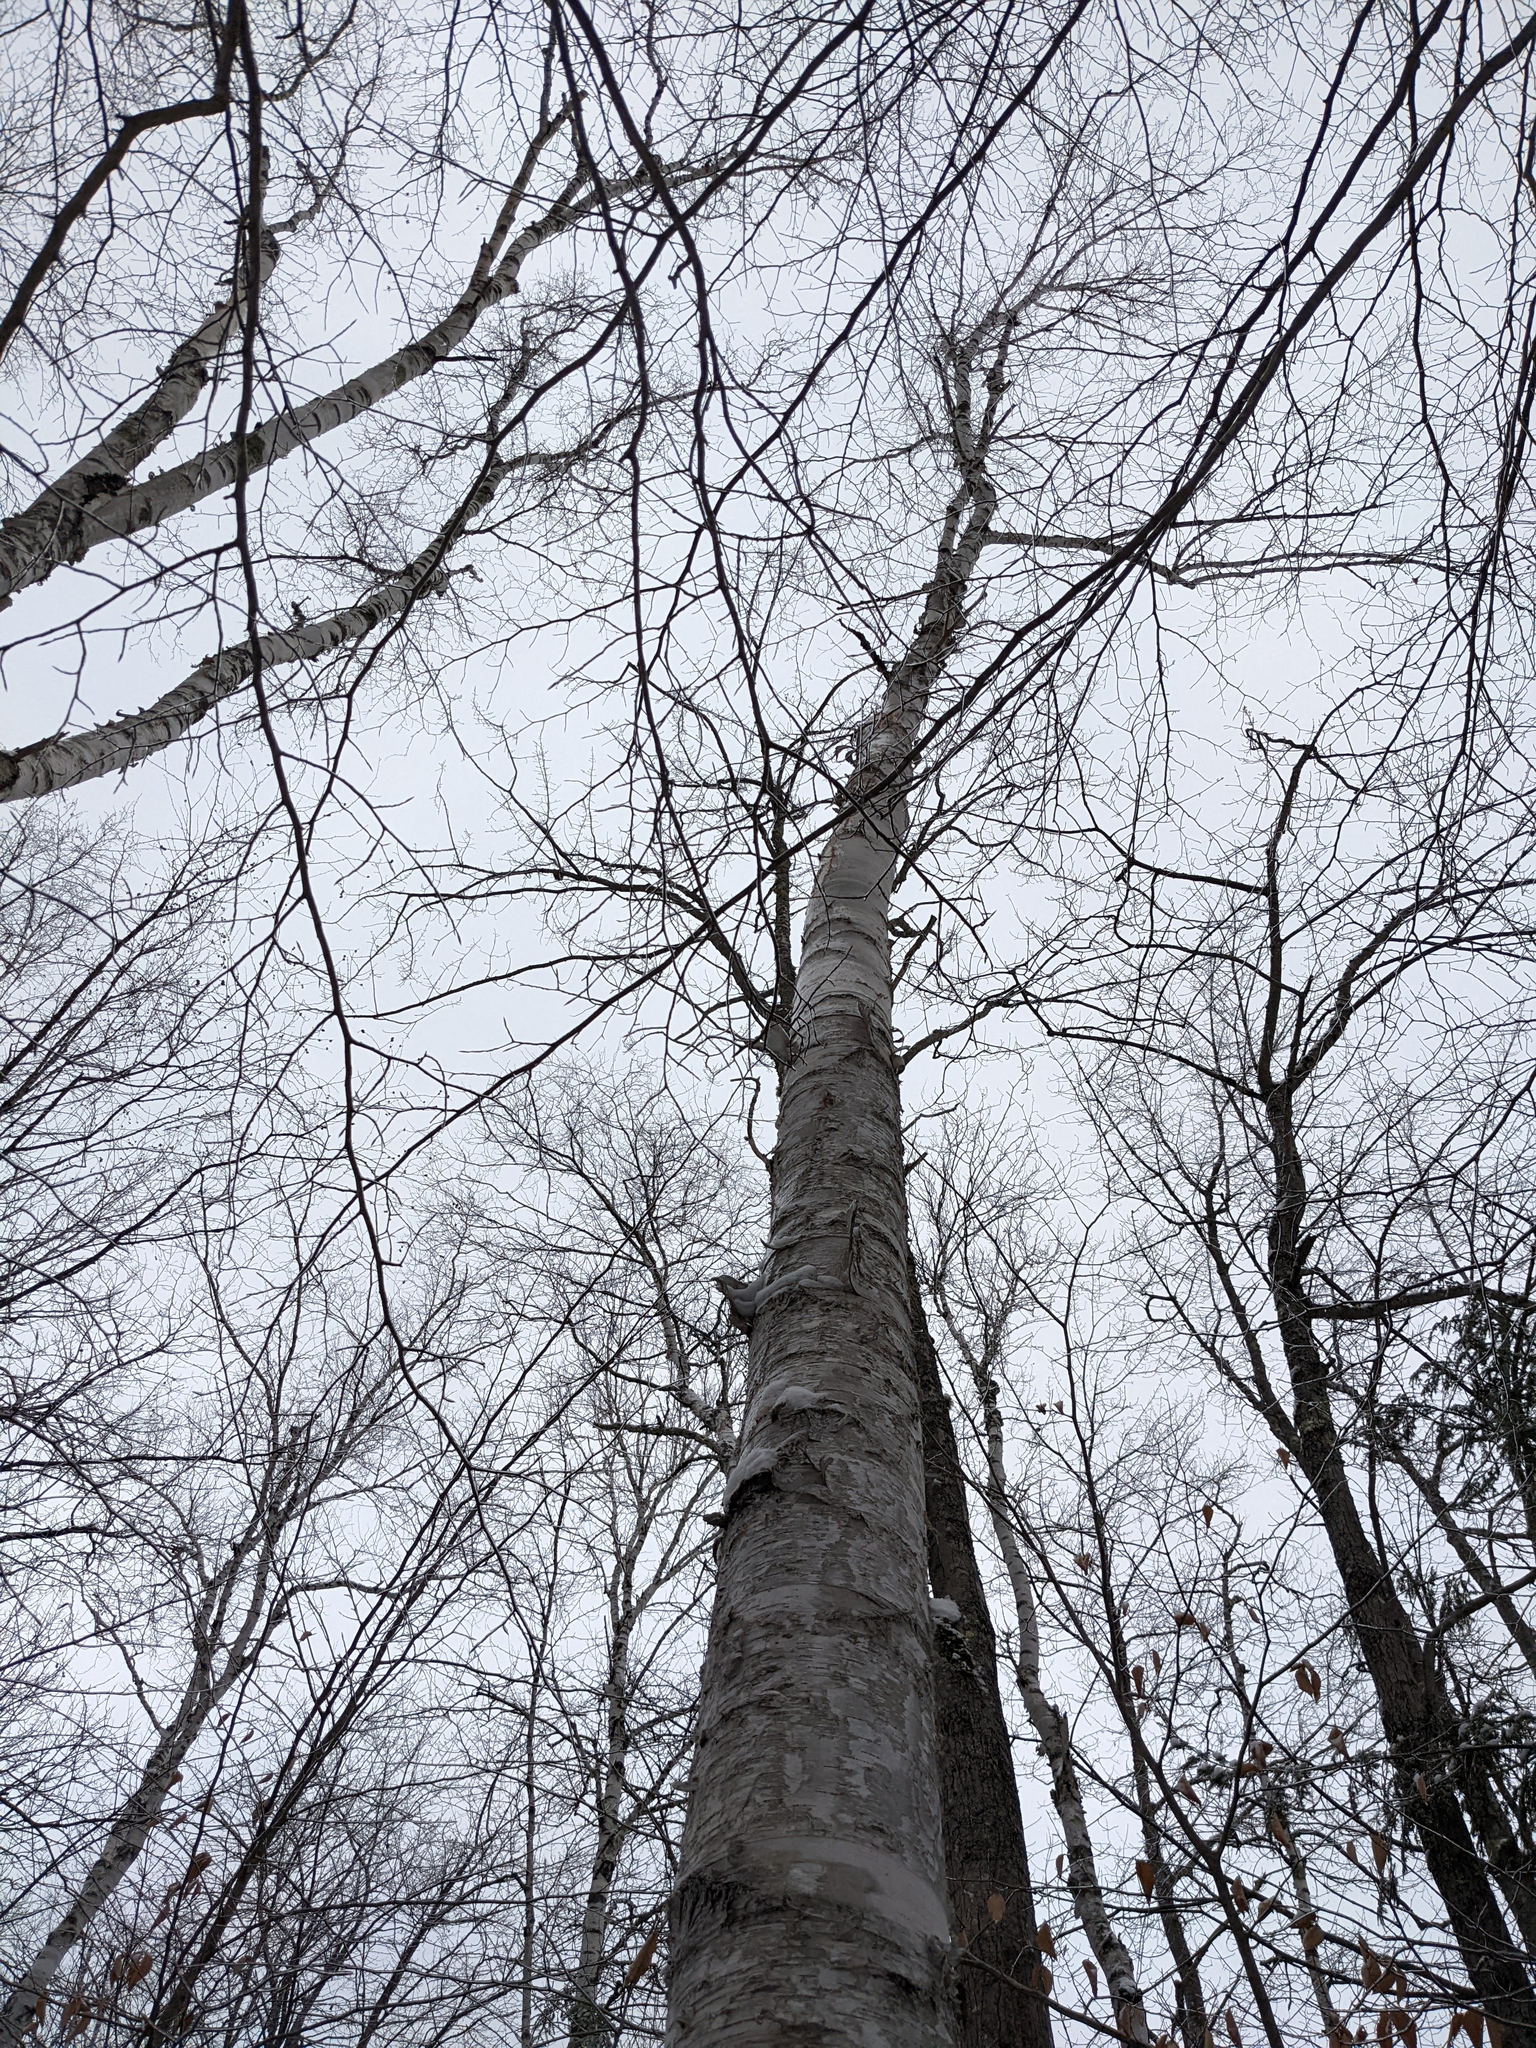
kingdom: Plantae
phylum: Tracheophyta
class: Magnoliopsida
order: Fagales
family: Betulaceae
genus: Betula
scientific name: Betula papyrifera
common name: Paper birch
